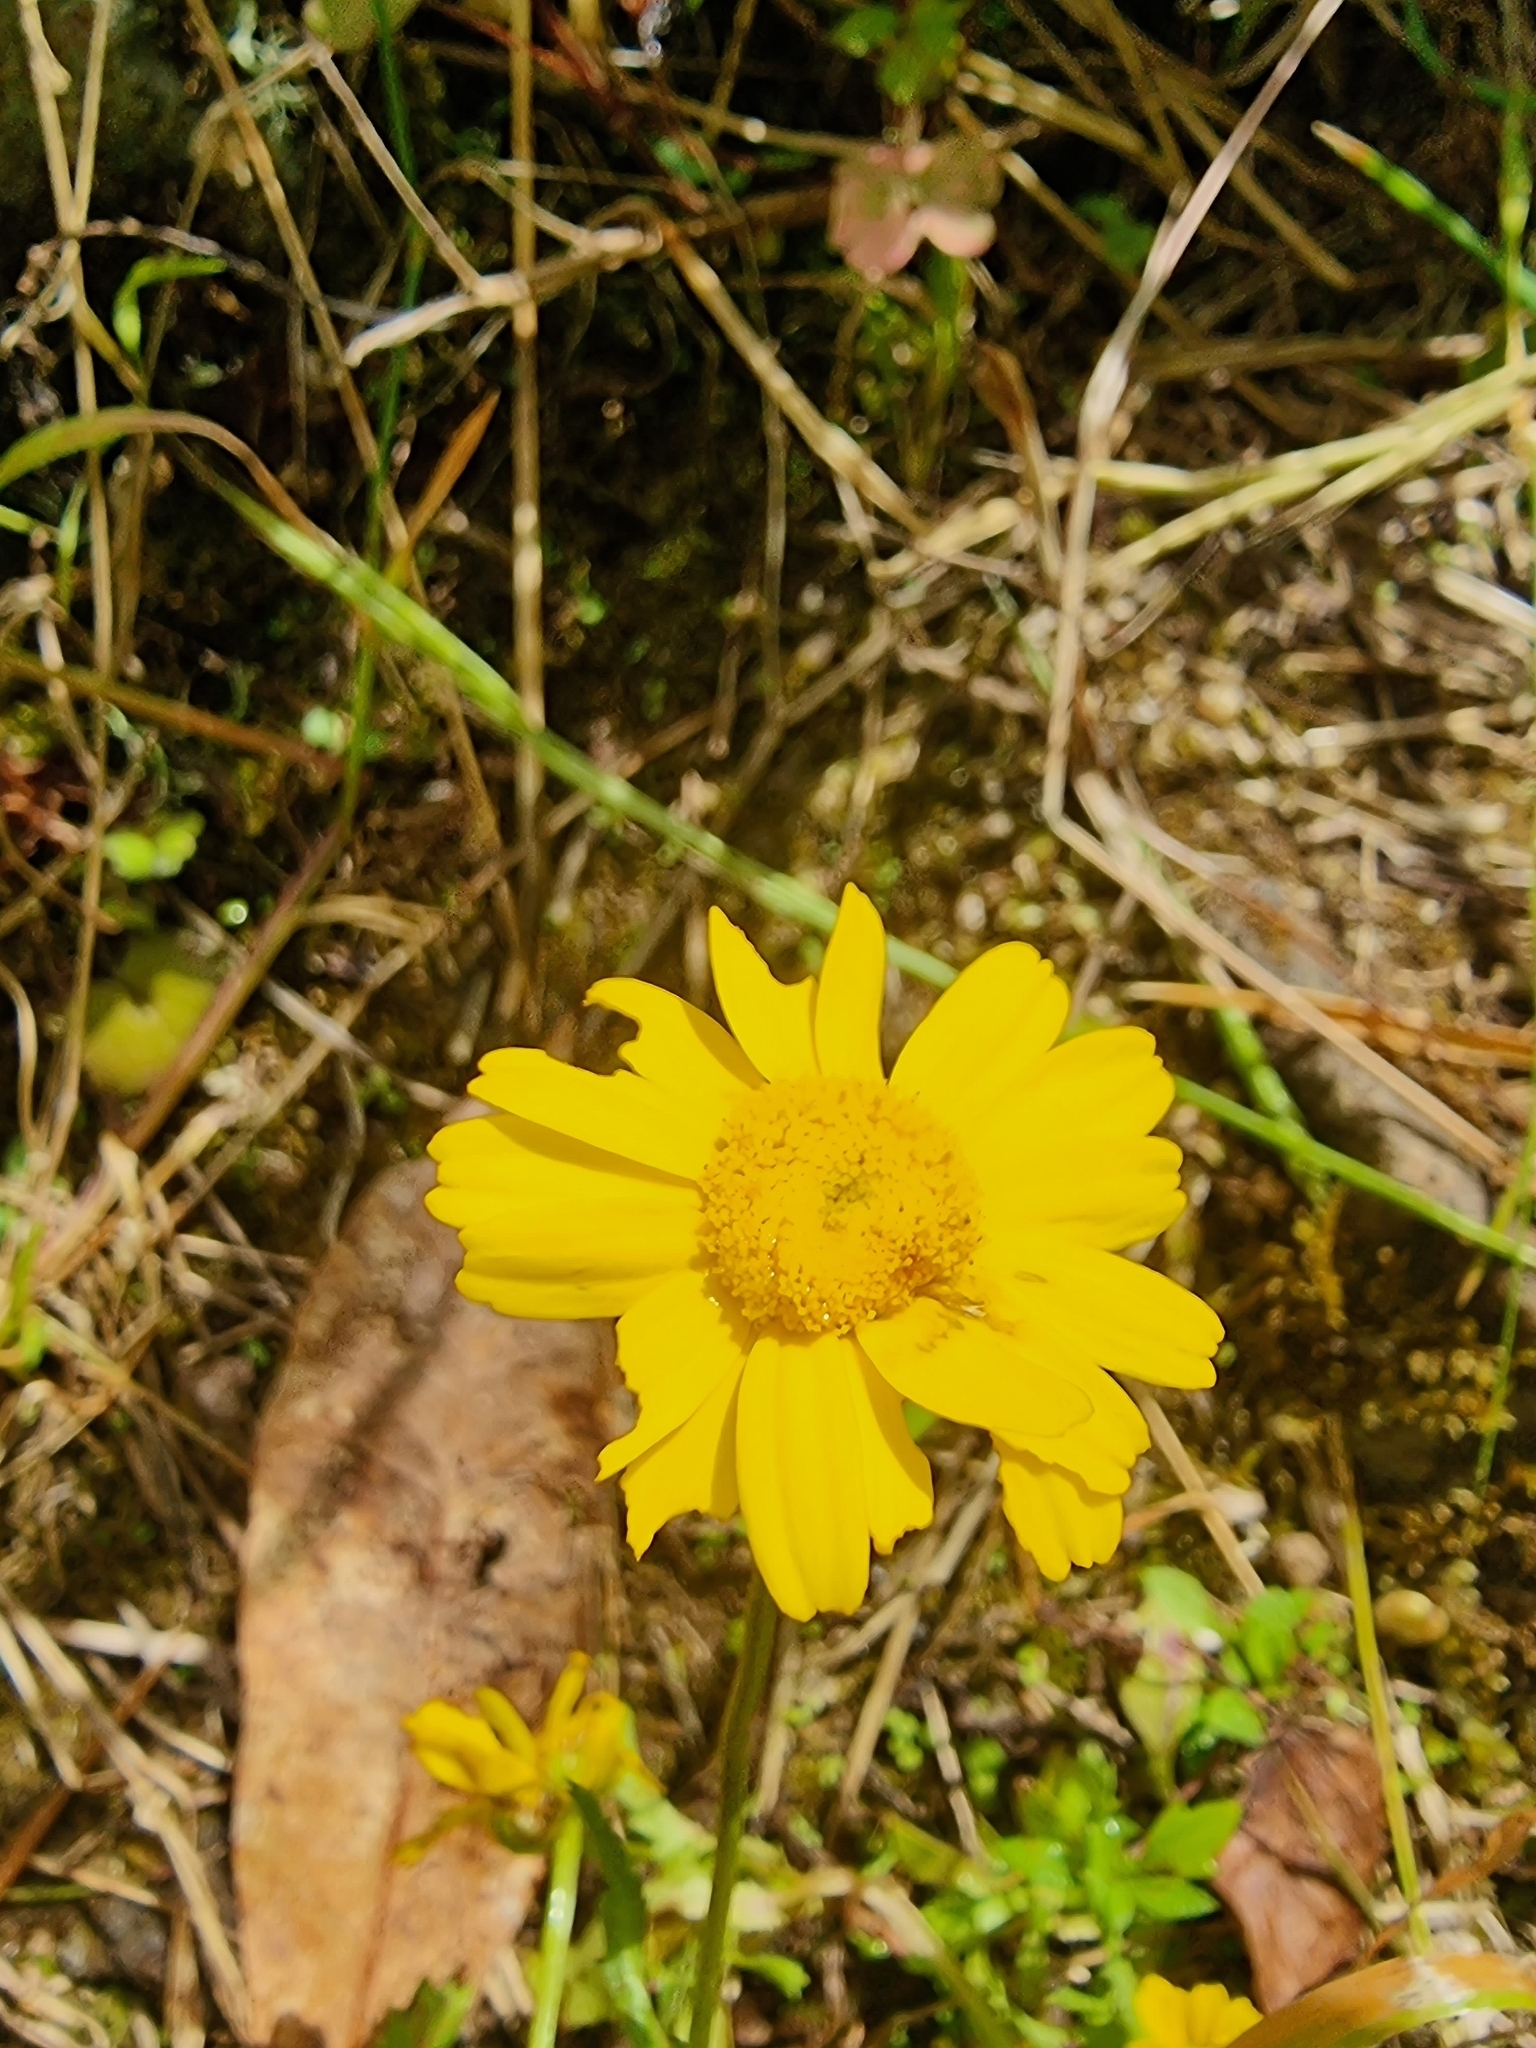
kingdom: Plantae
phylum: Tracheophyta
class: Magnoliopsida
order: Asterales
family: Asteraceae
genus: Coleostephus
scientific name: Coleostephus myconis
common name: Mediterranean marigold
